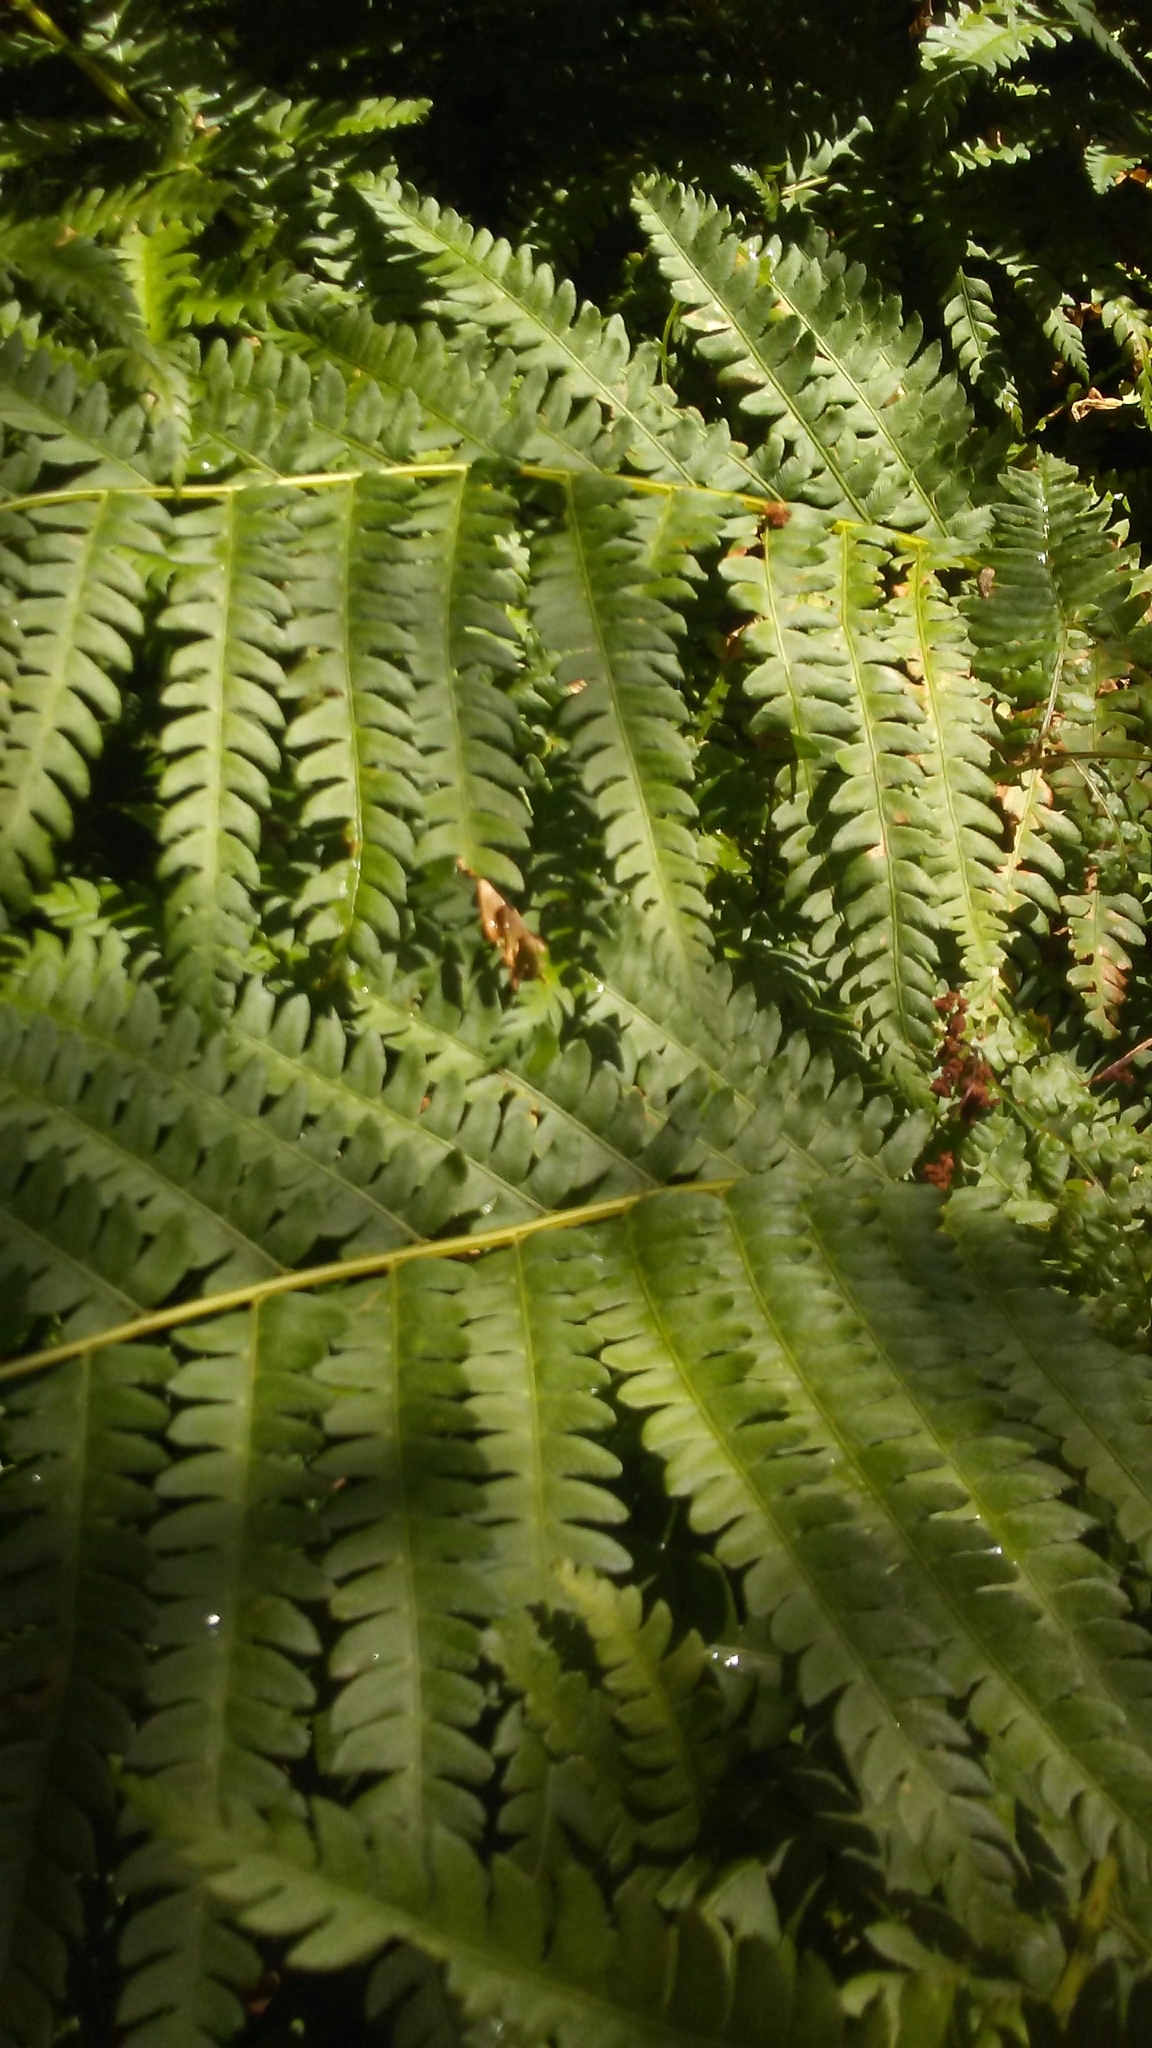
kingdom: Plantae
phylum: Tracheophyta
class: Polypodiopsida
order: Osmundales
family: Osmundaceae
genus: Osmundastrum
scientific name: Osmundastrum cinnamomeum
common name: Cinnamon fern
